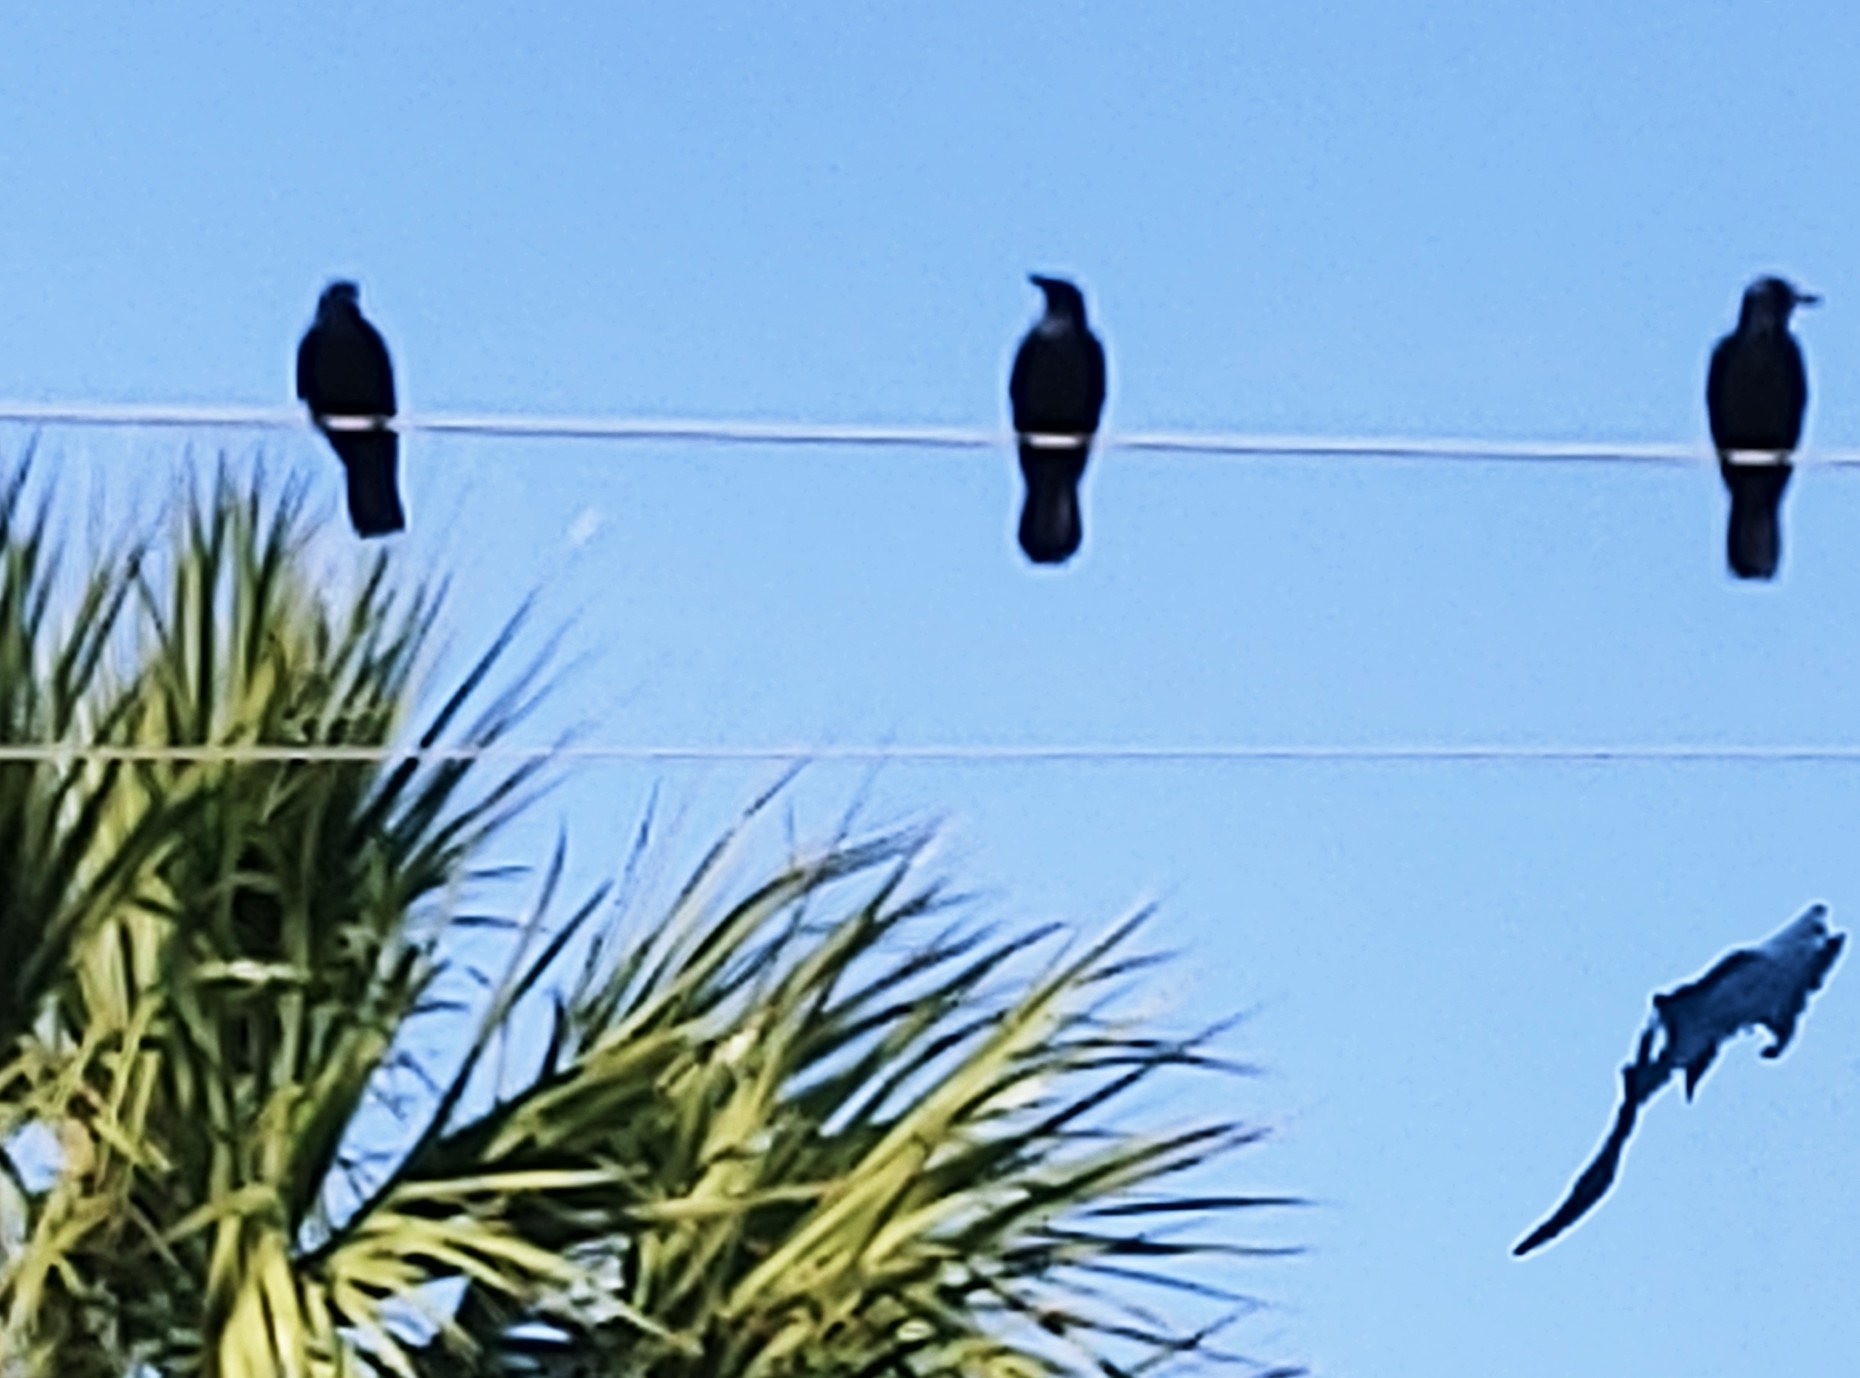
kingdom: Animalia
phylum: Chordata
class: Aves
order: Passeriformes
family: Corvidae
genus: Corvus
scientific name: Corvus ossifragus
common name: Fish crow
